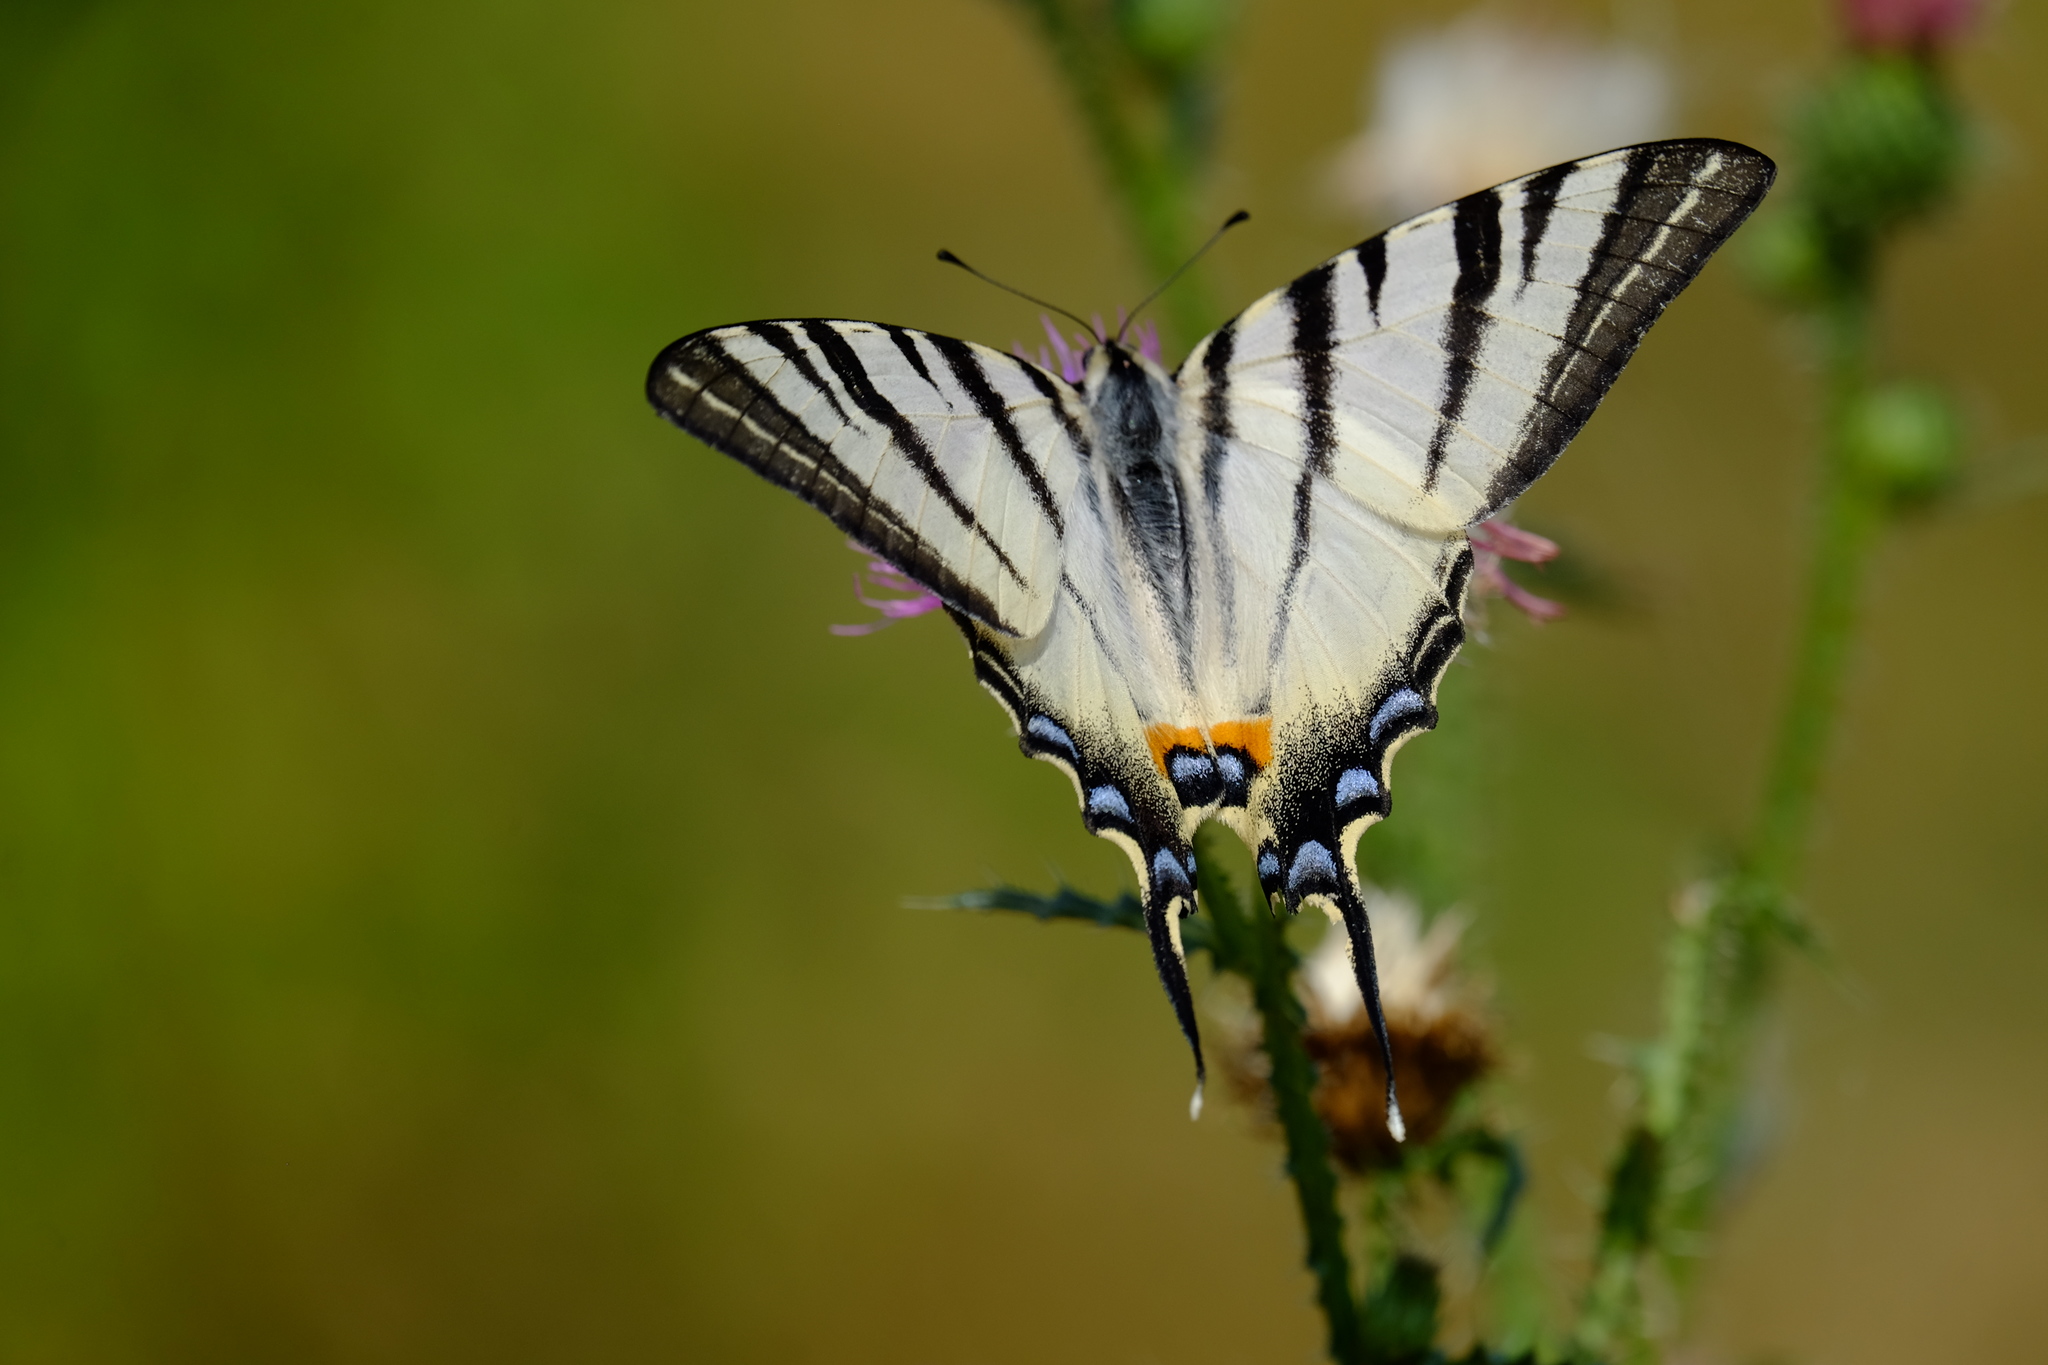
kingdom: Animalia
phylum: Arthropoda
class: Insecta
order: Lepidoptera
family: Papilionidae
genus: Iphiclides
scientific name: Iphiclides podalirius
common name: Scarce swallowtail
